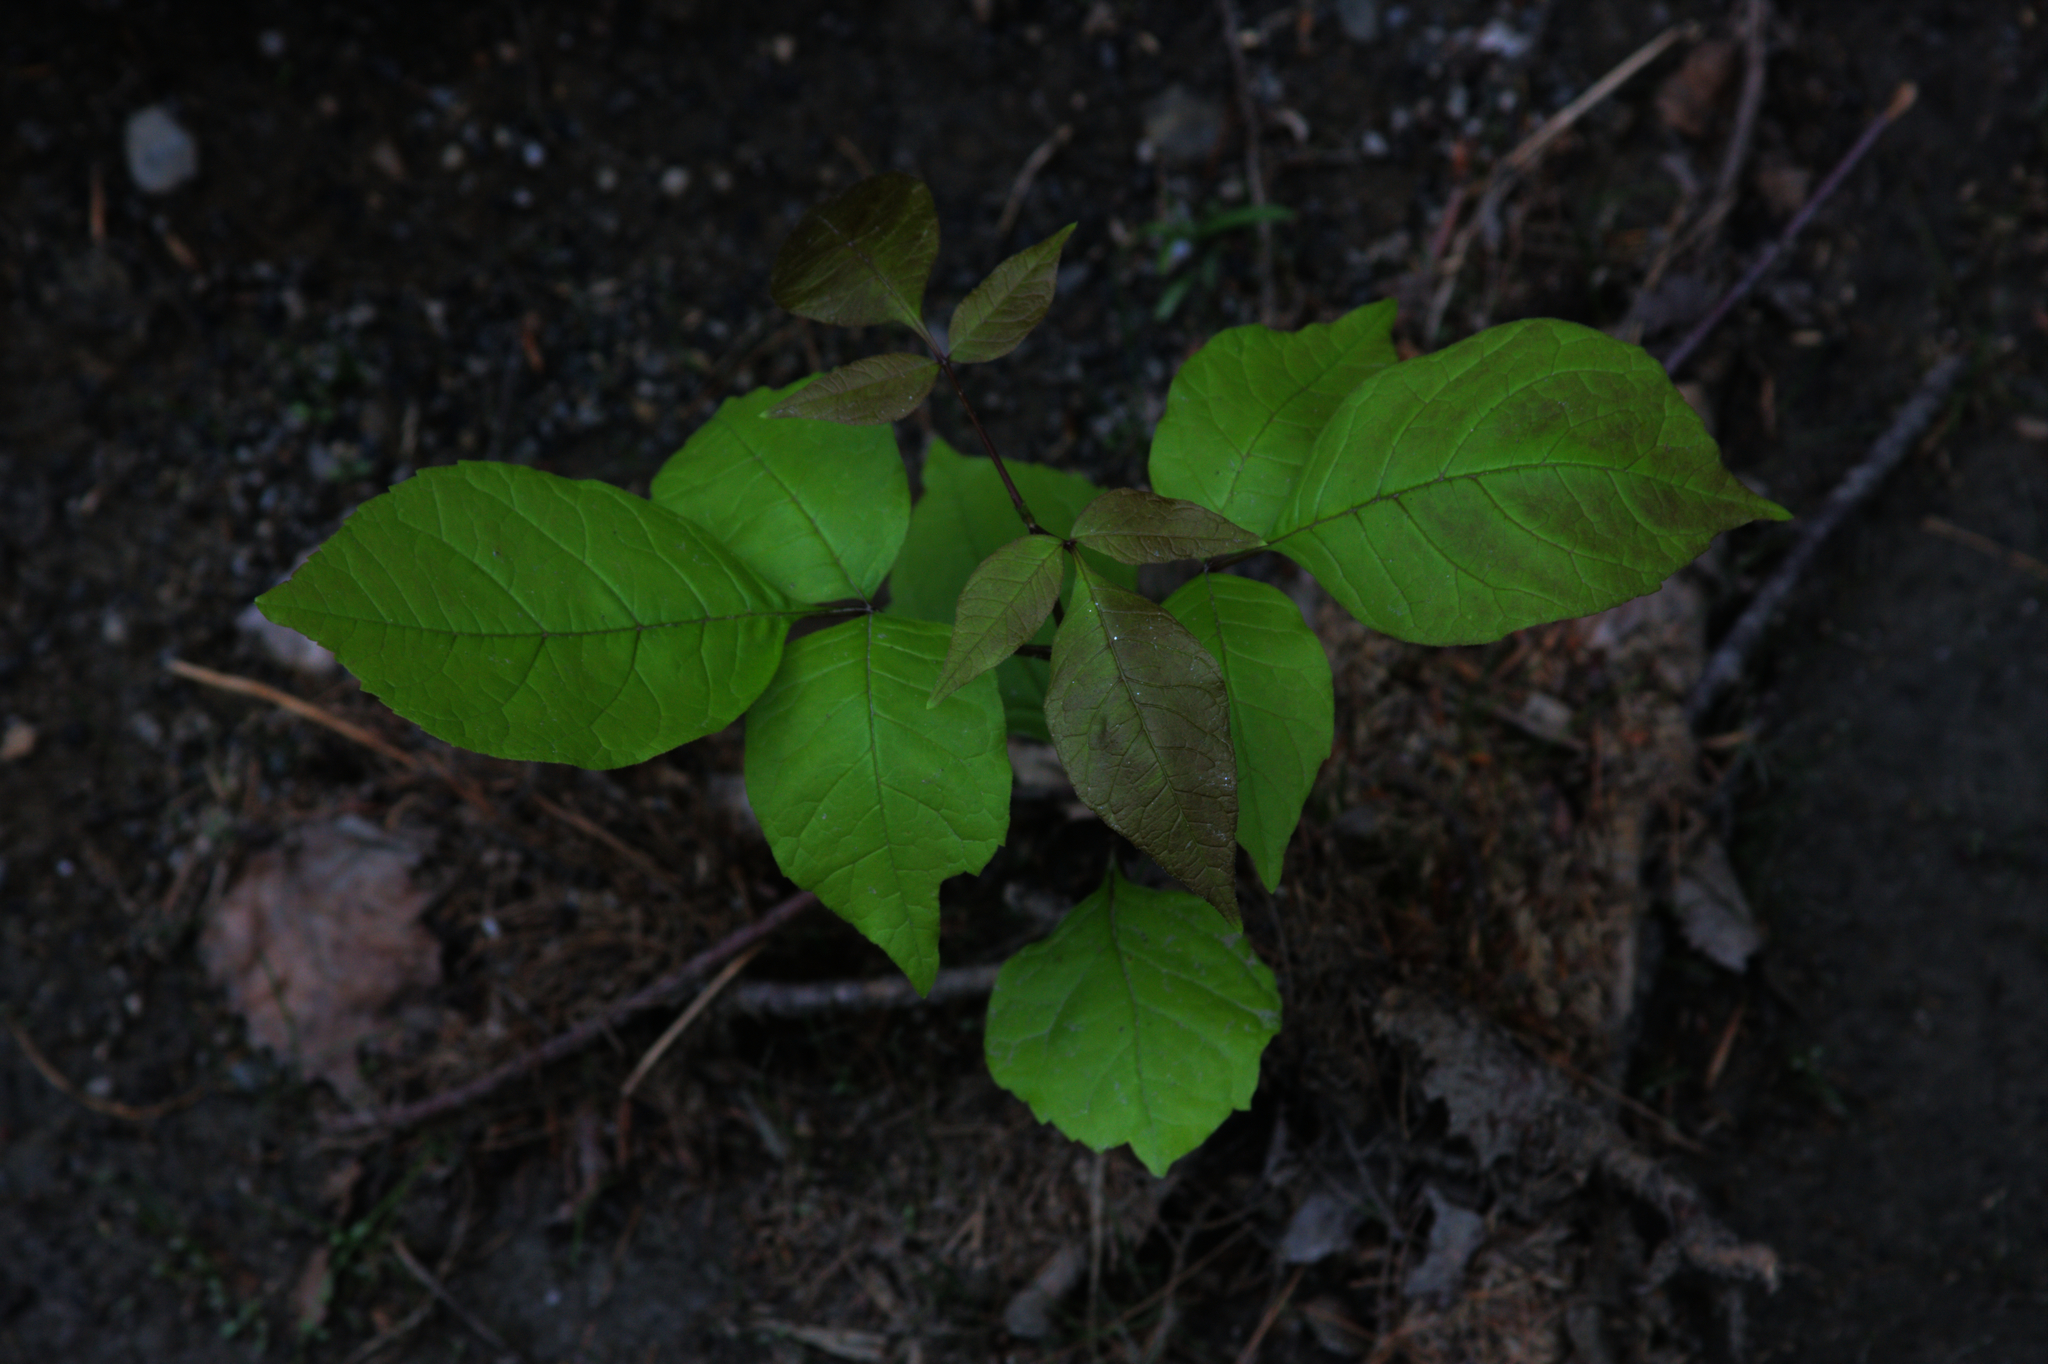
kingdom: Plantae
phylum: Tracheophyta
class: Magnoliopsida
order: Sapindales
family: Anacardiaceae
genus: Toxicodendron
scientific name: Toxicodendron radicans
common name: Poison ivy
